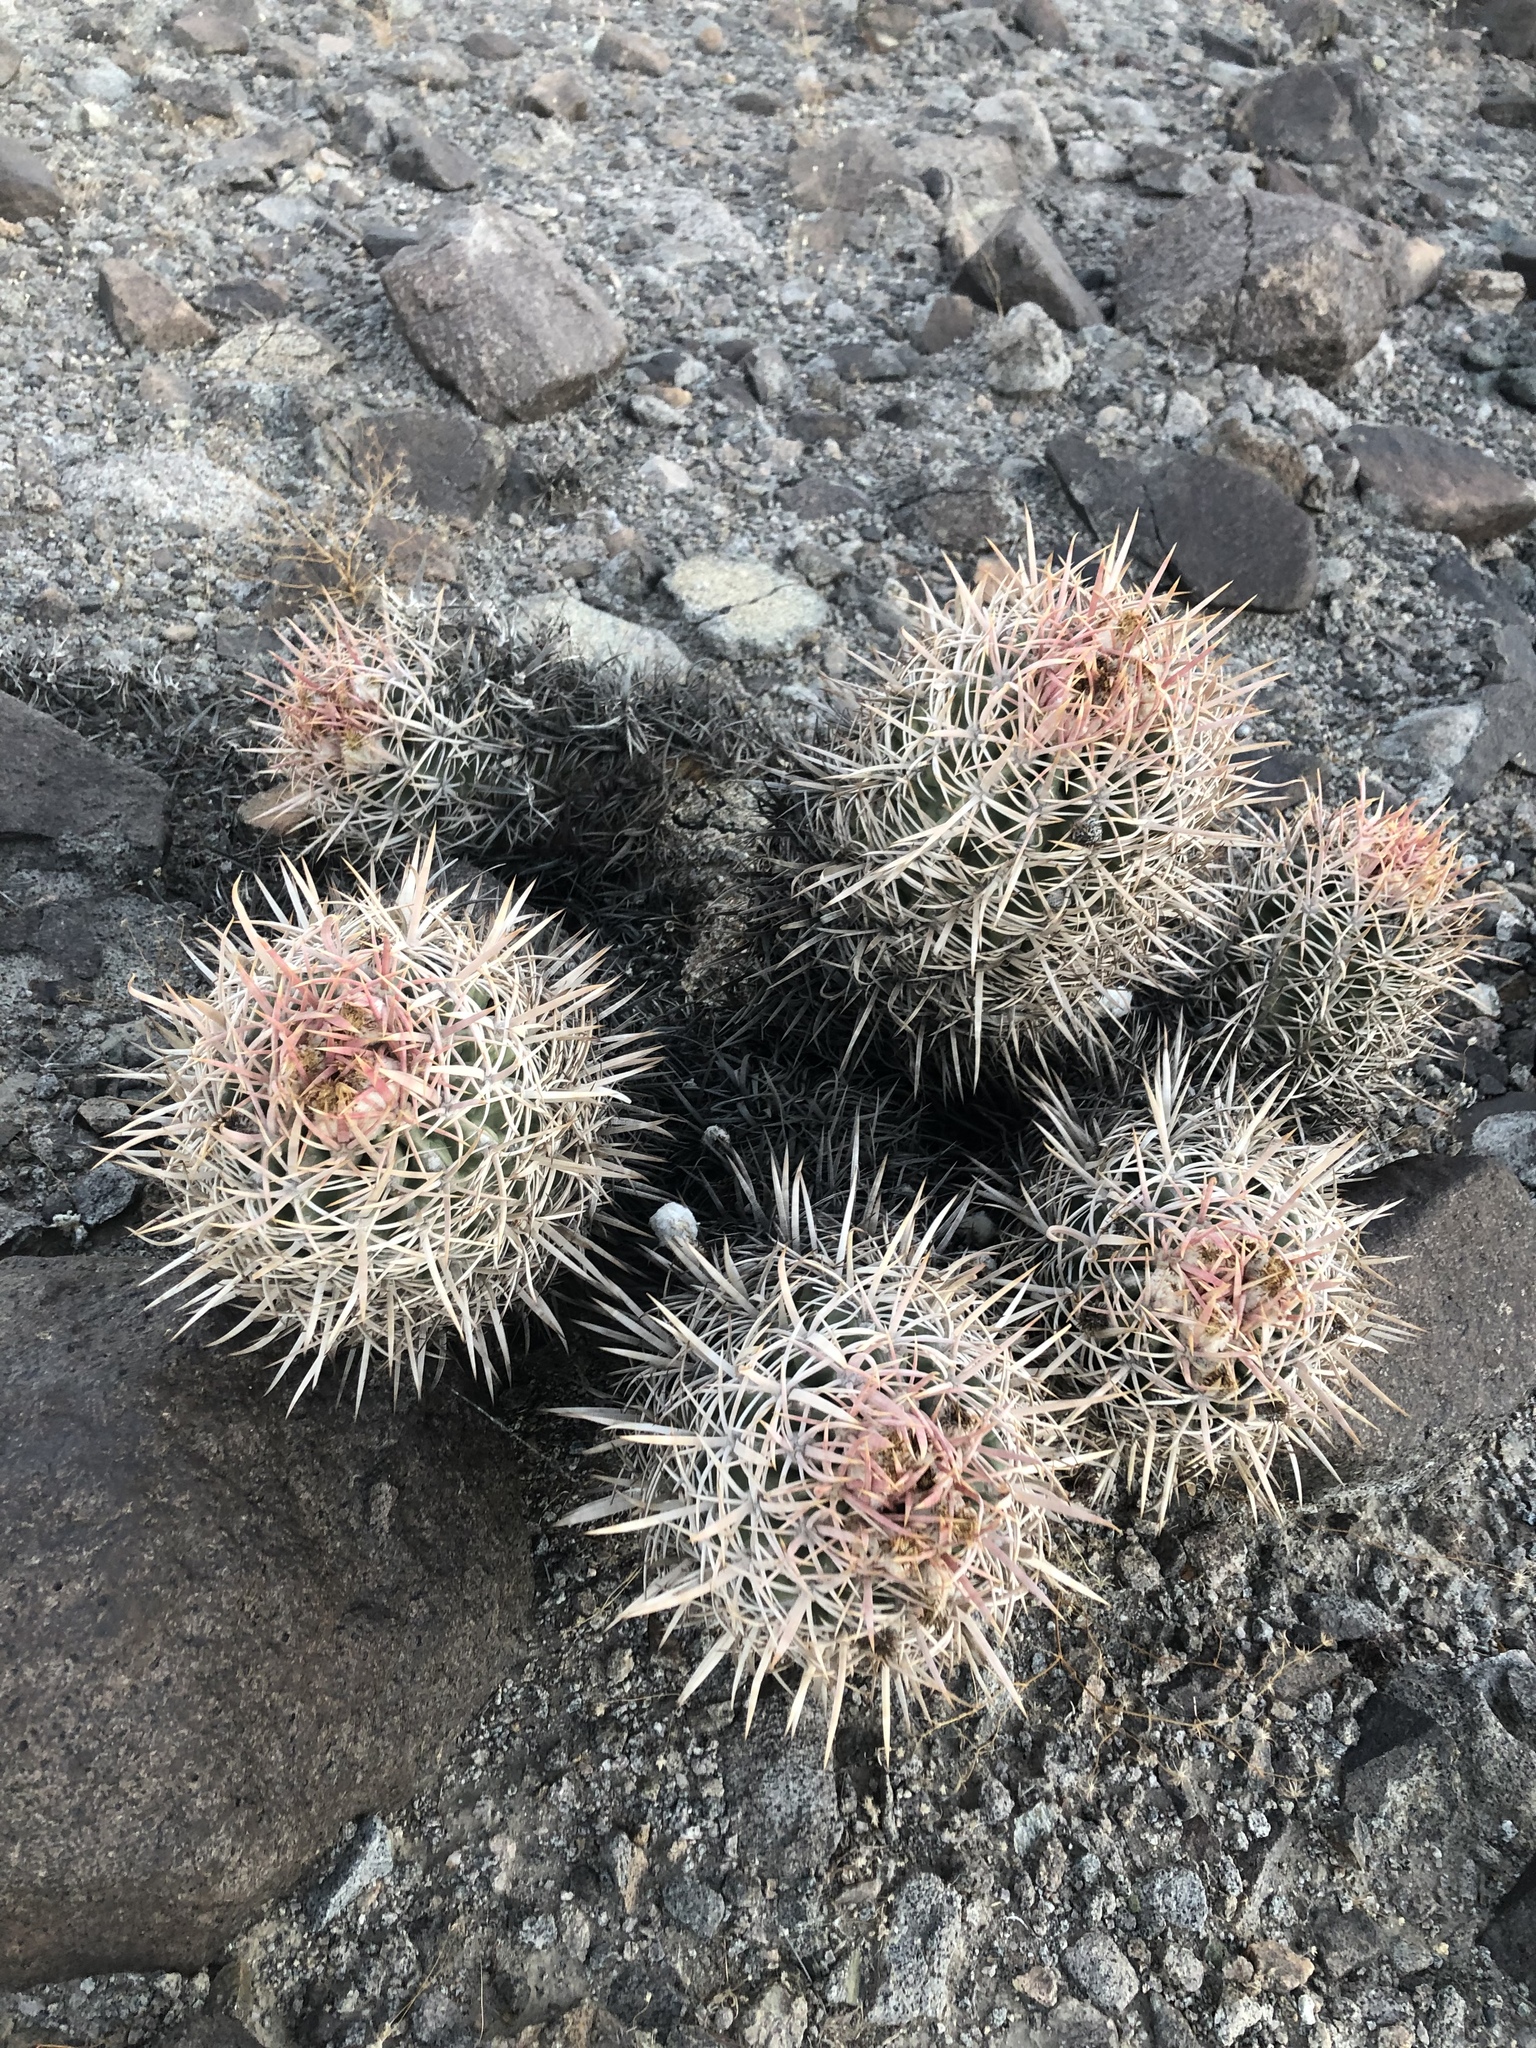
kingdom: Plantae
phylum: Tracheophyta
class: Magnoliopsida
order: Caryophyllales
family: Cactaceae
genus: Echinocactus
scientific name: Echinocactus polycephalus
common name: Cottontop cactus
